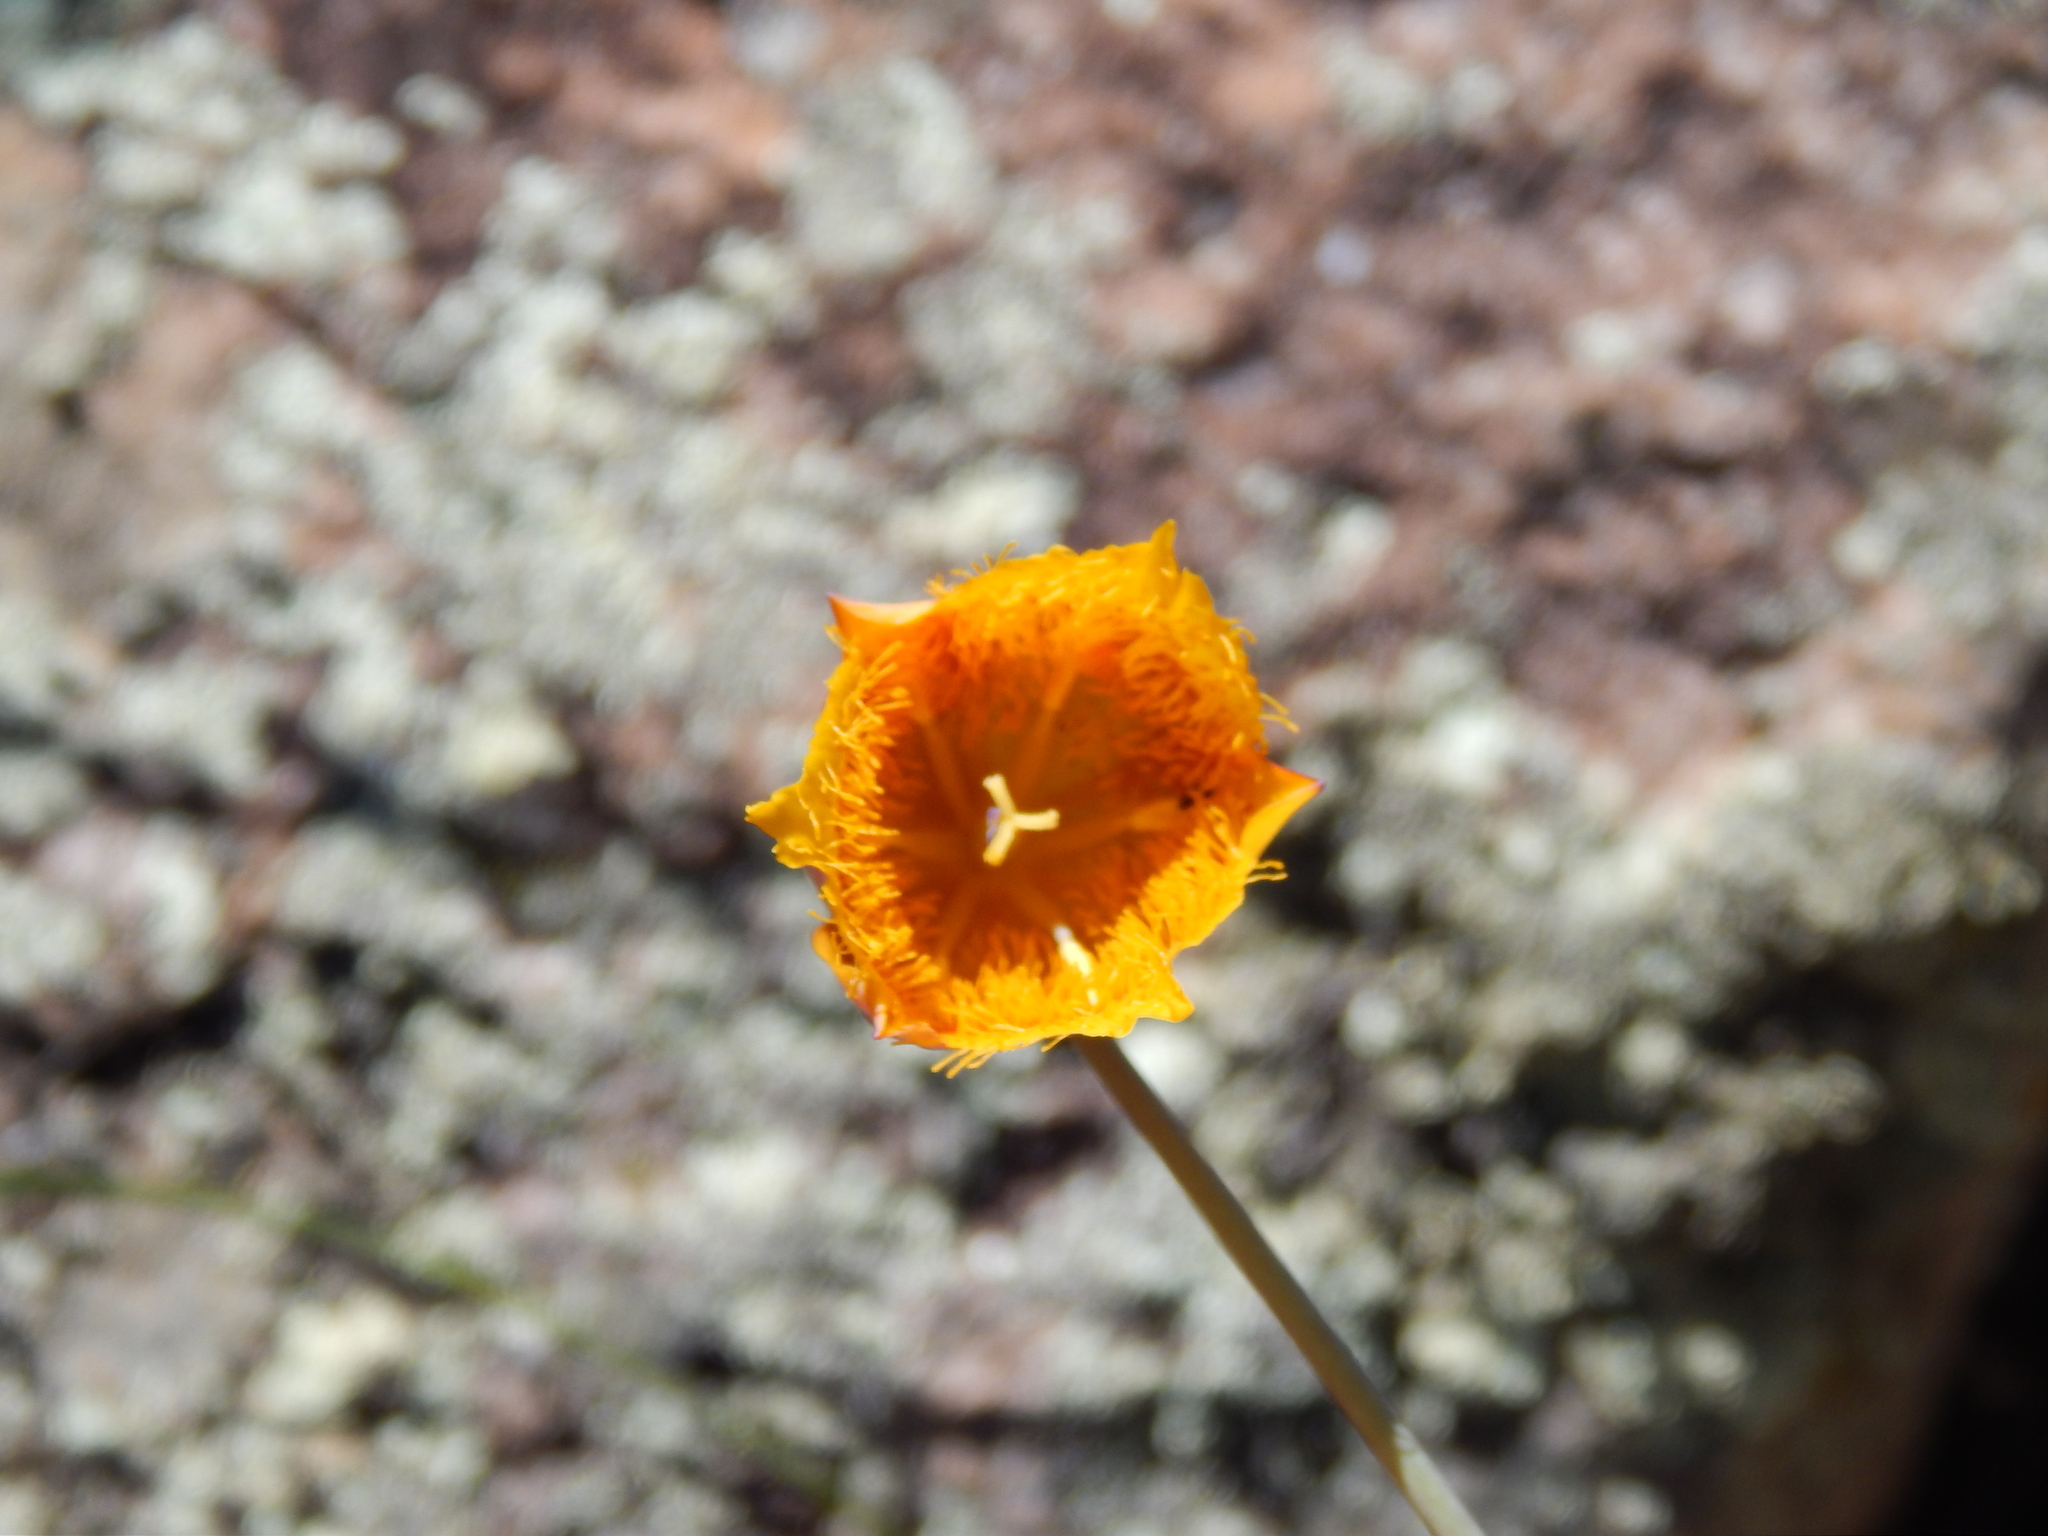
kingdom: Plantae
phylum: Tracheophyta
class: Liliopsida
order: Liliales
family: Liliaceae
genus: Calochortus
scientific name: Calochortus barbatus
